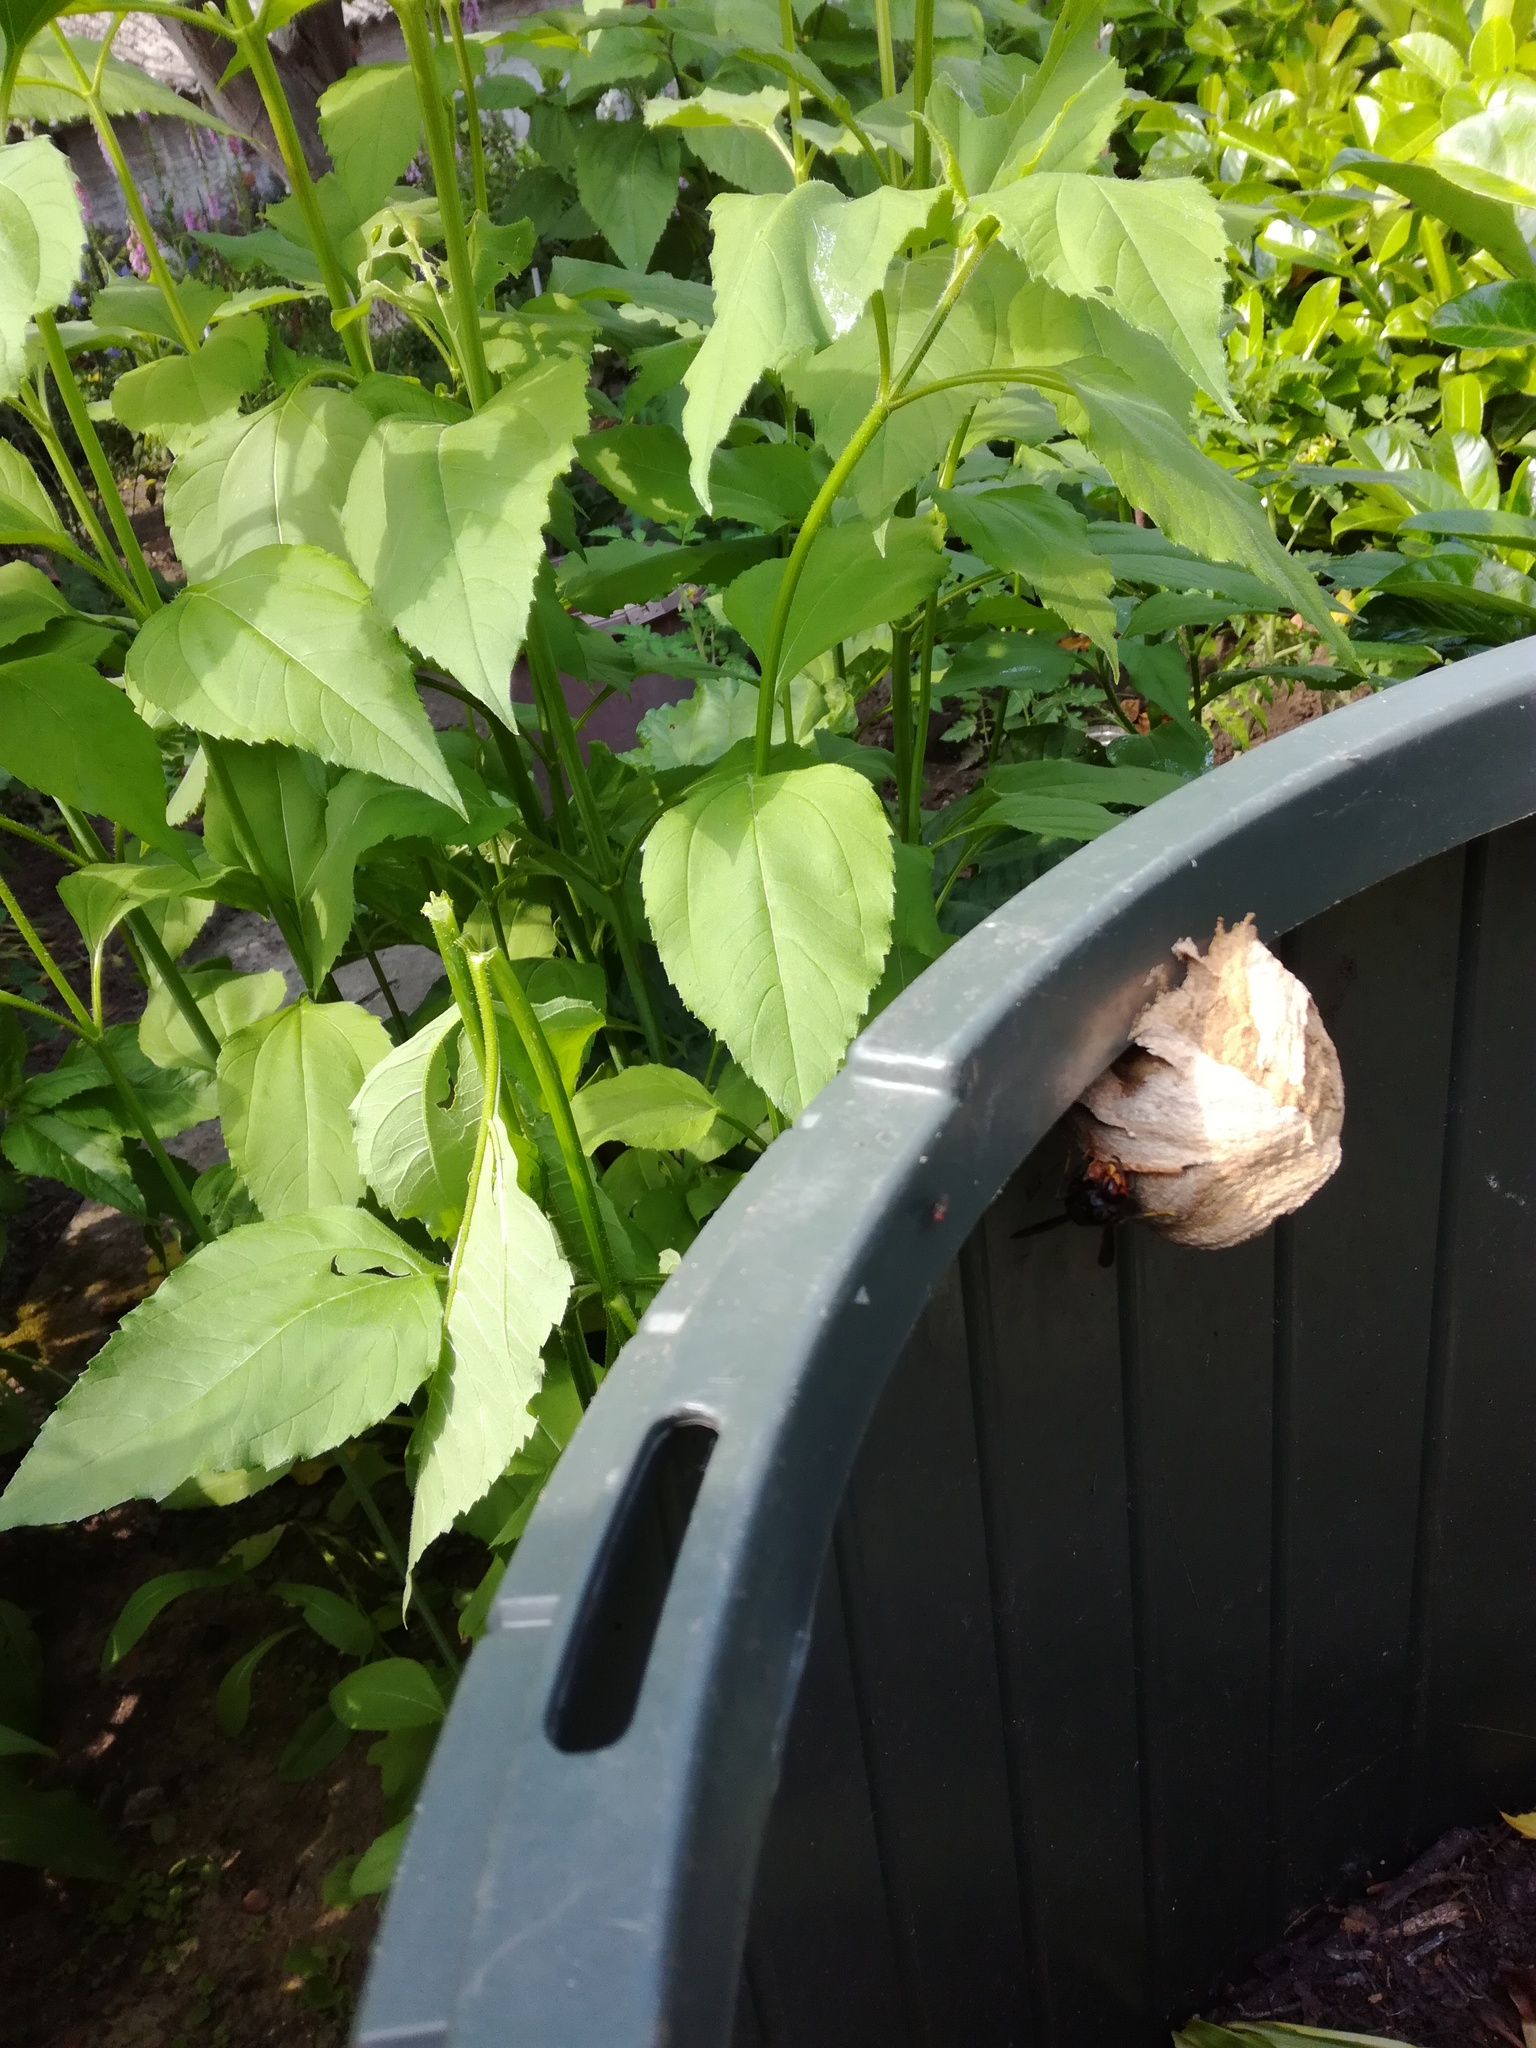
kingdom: Animalia
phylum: Arthropoda
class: Insecta
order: Hymenoptera
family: Vespidae
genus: Vespa
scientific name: Vespa velutina
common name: Asian hornet
